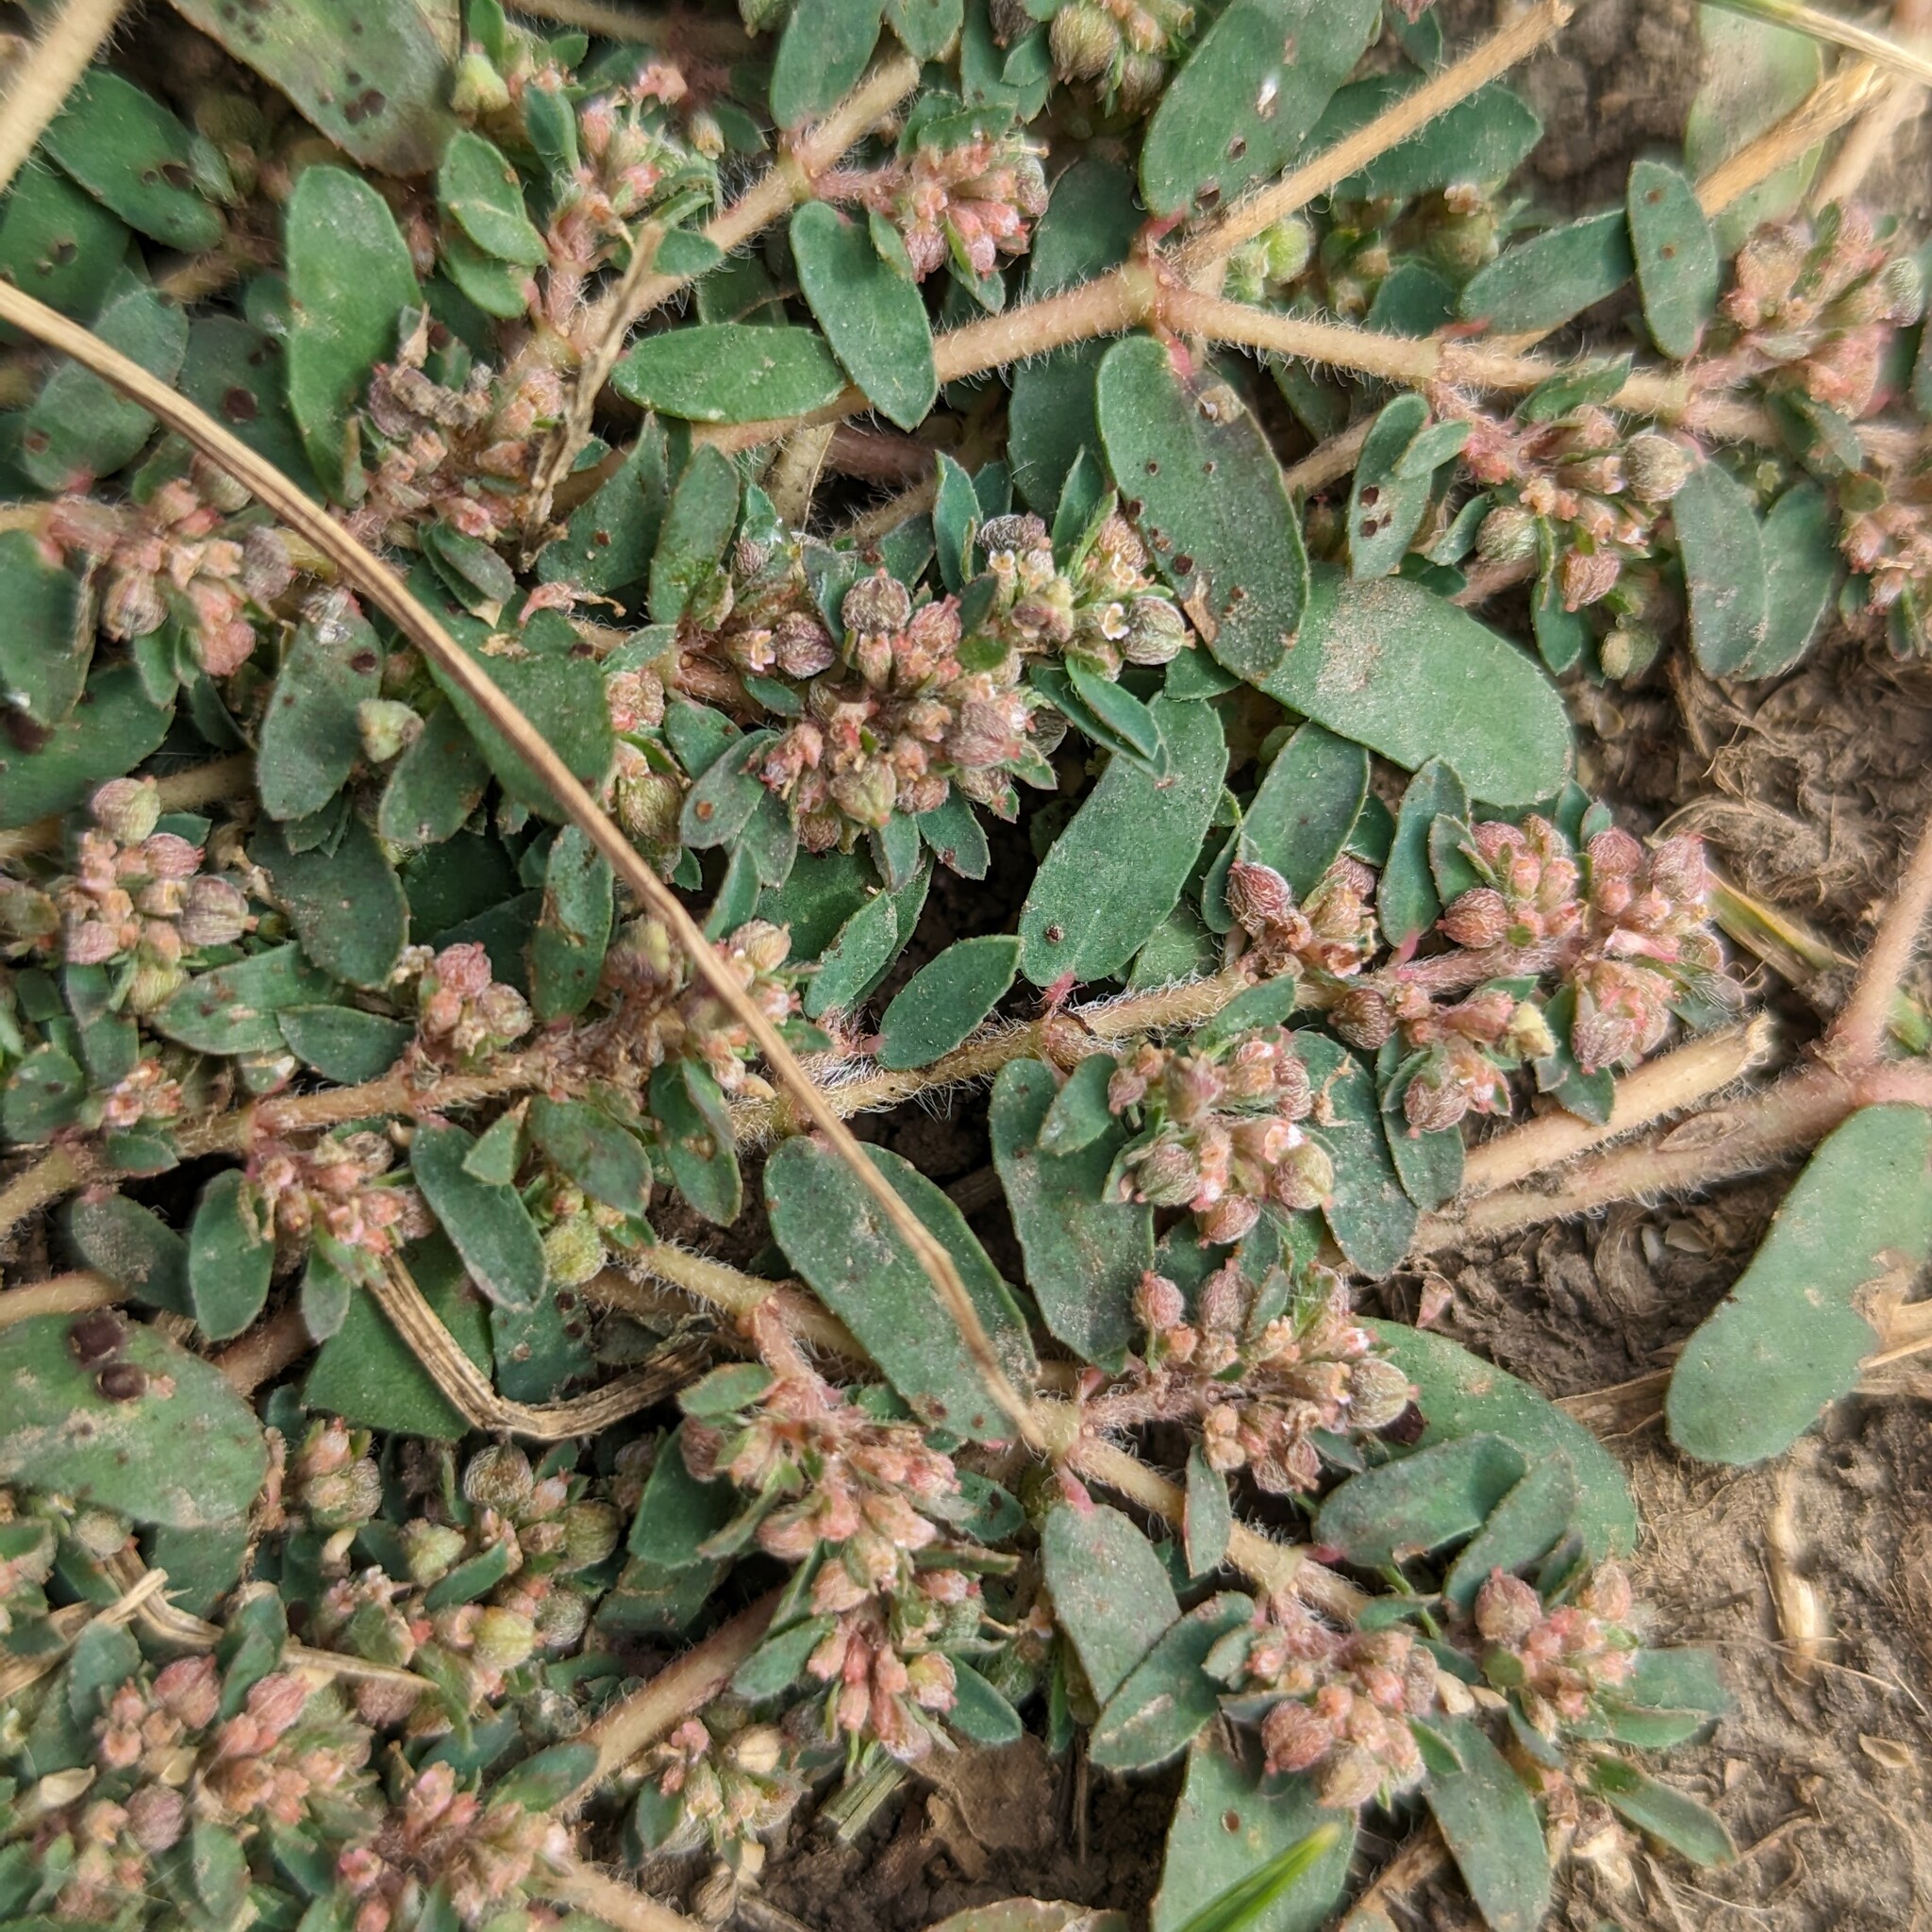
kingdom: Plantae
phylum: Tracheophyta
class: Magnoliopsida
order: Malpighiales
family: Euphorbiaceae
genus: Euphorbia
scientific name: Euphorbia maculata
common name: Spotted spurge
